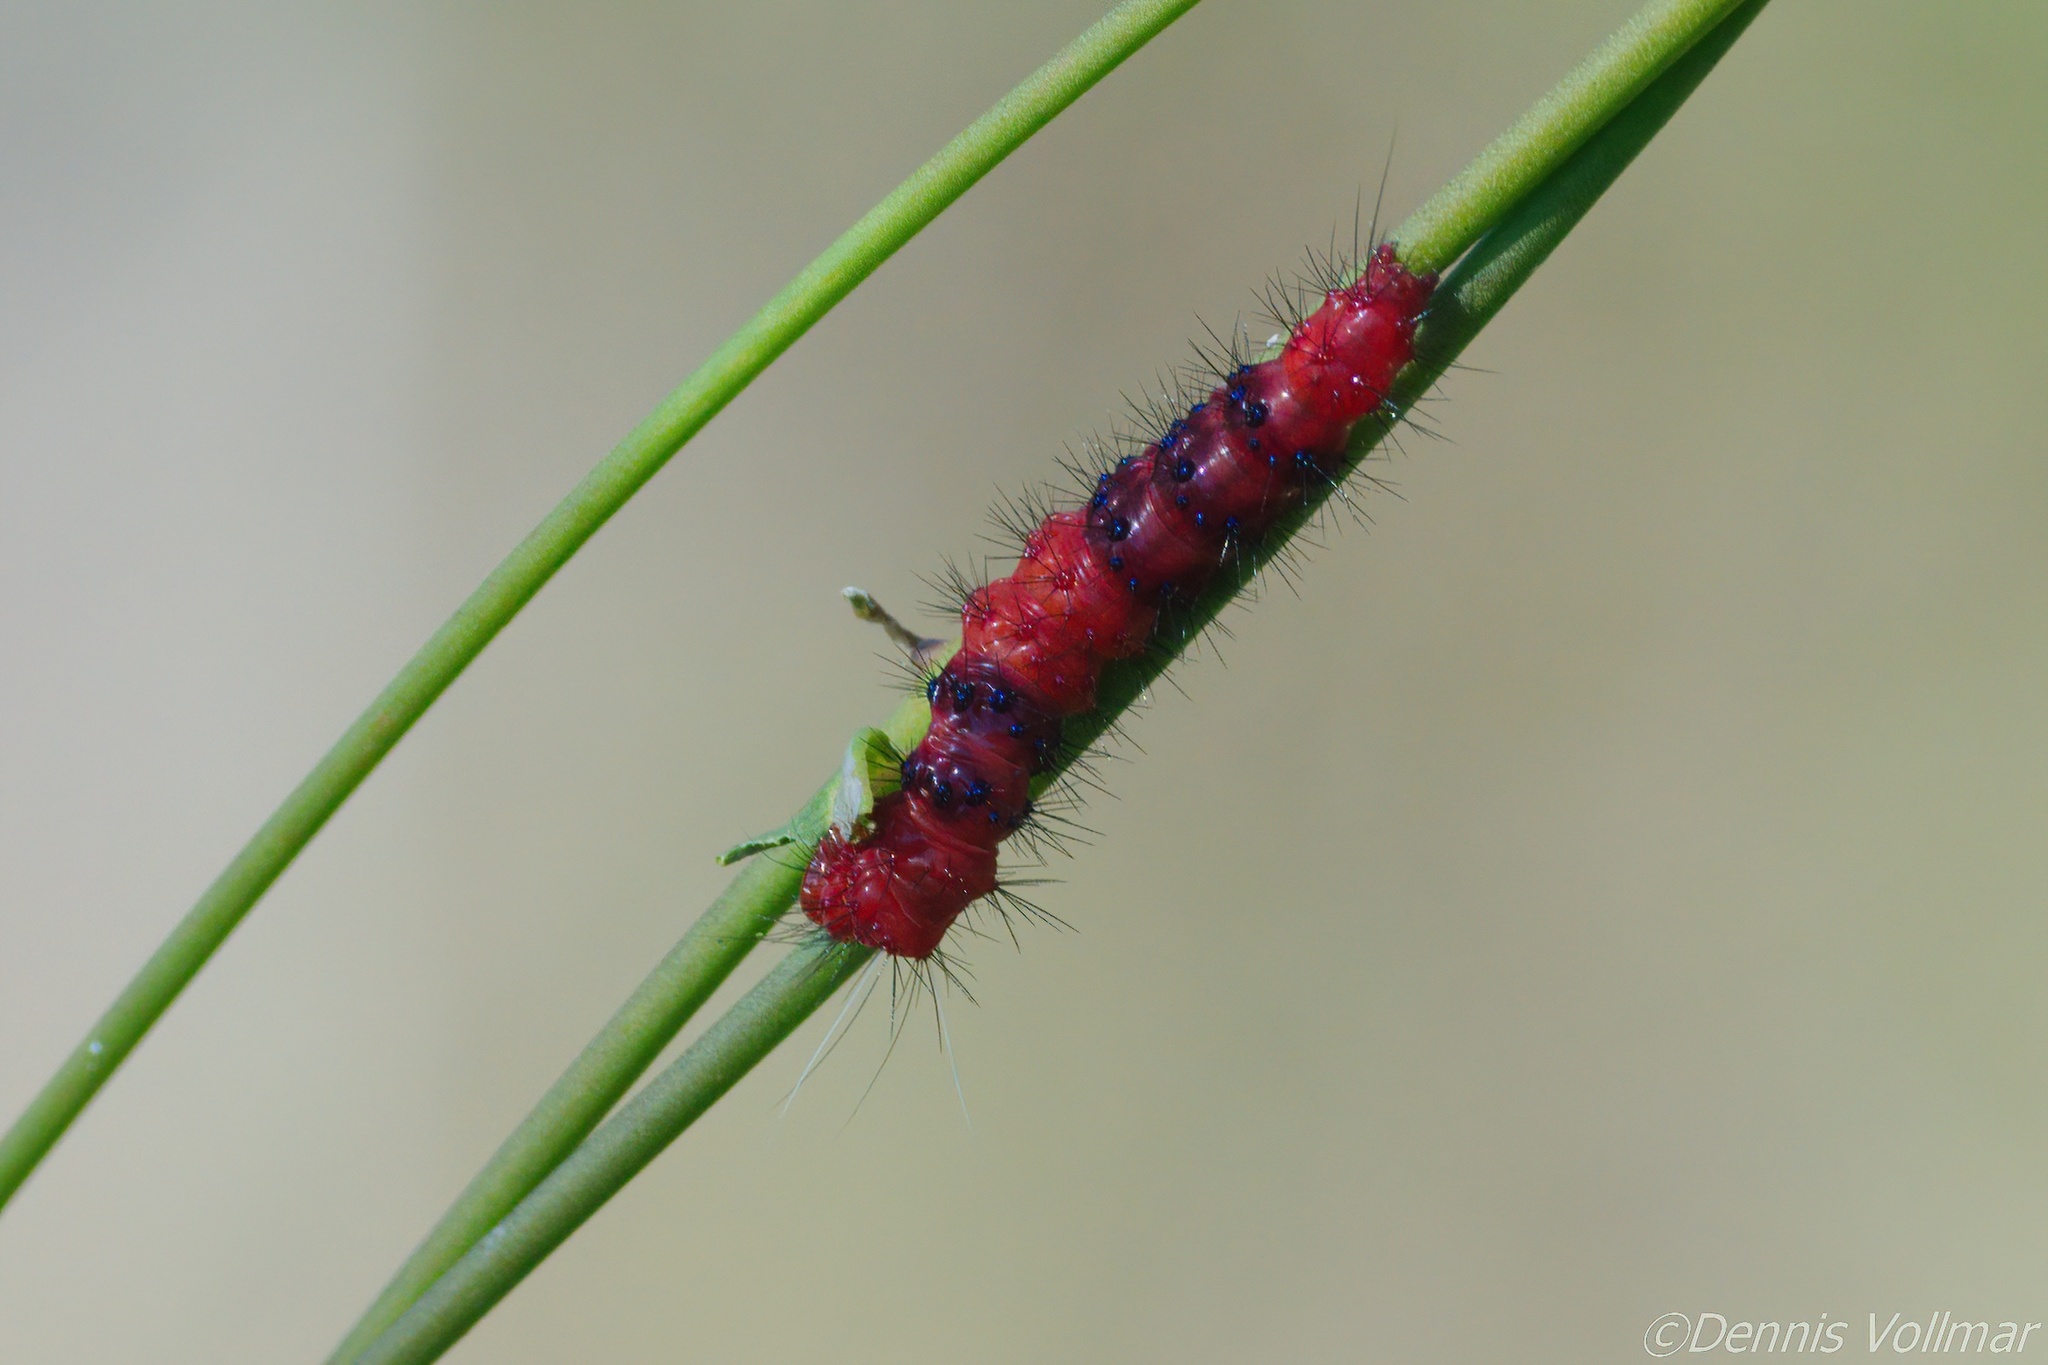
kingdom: Animalia
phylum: Arthropoda
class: Insecta
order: Lepidoptera
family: Erebidae
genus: Composia
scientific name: Composia fidelissima
